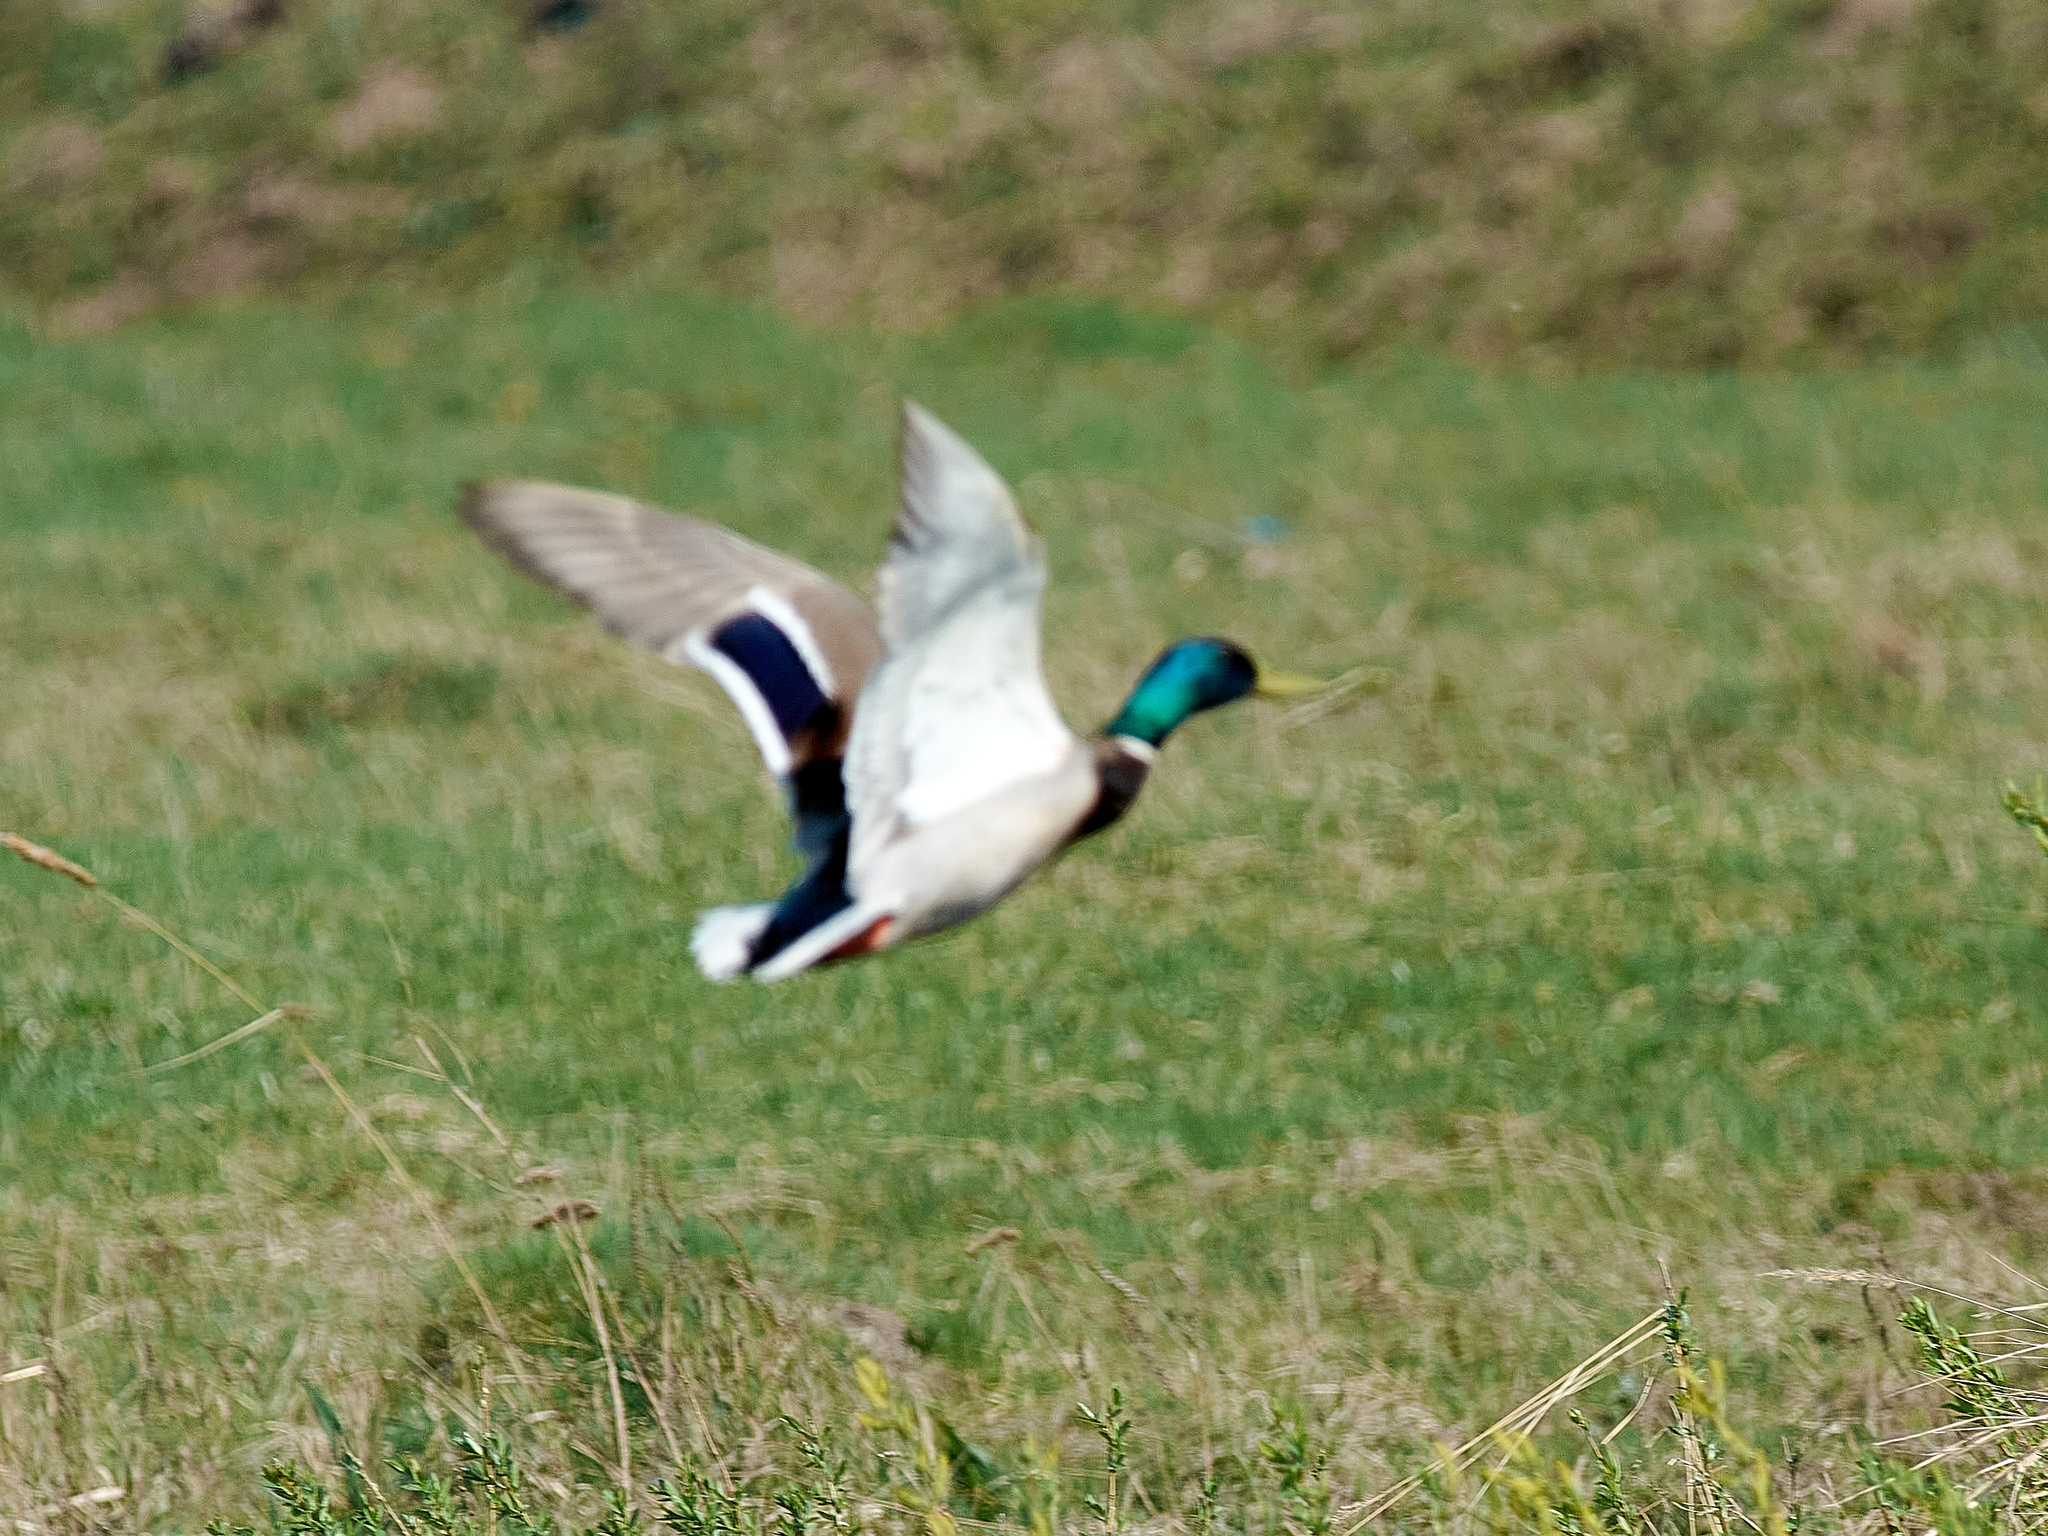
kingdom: Animalia
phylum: Chordata
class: Aves
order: Anseriformes
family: Anatidae
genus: Anas
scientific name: Anas platyrhynchos
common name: Mallard
